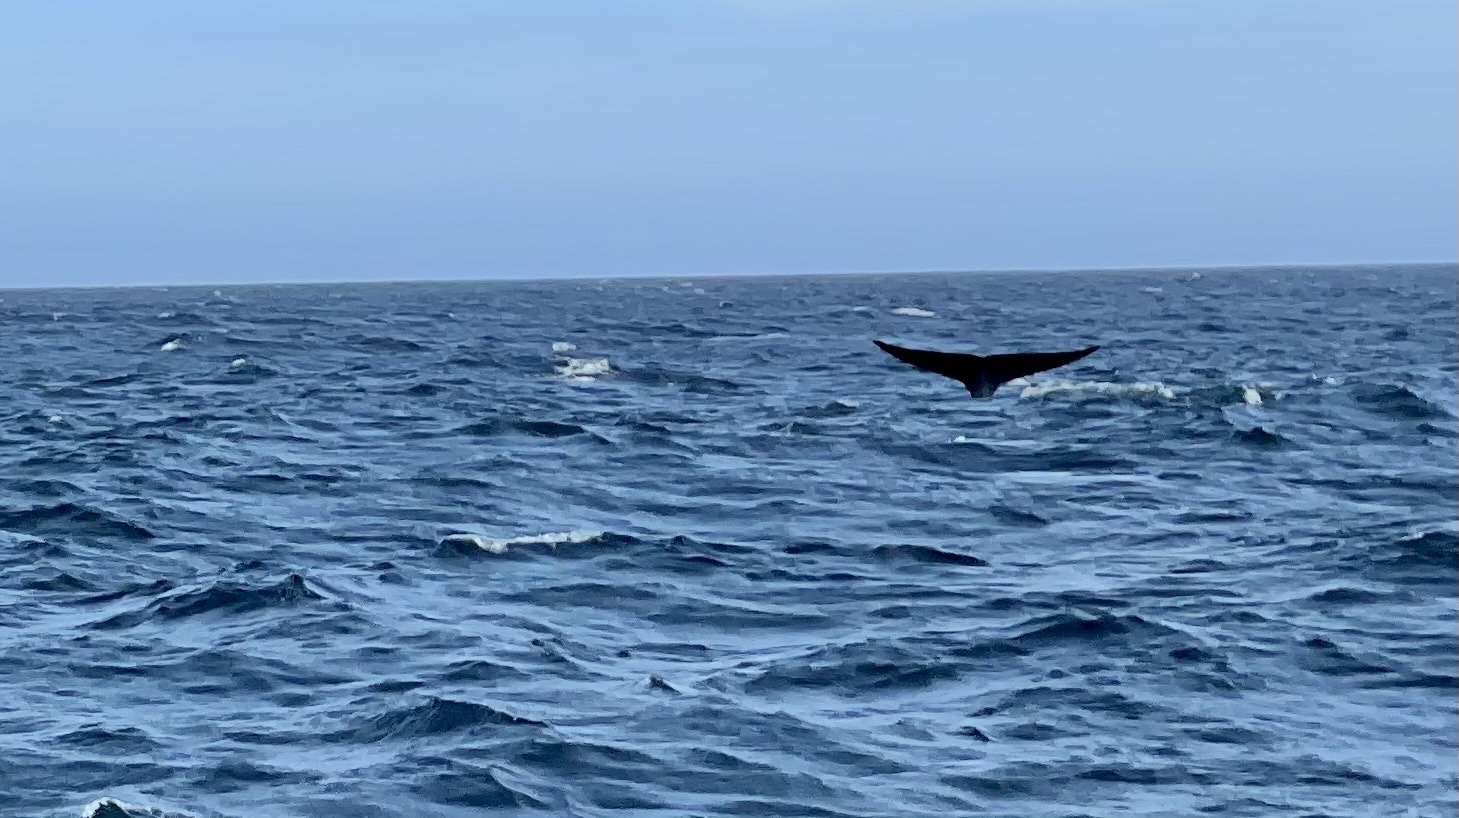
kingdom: Animalia
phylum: Chordata
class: Mammalia
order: Cetacea
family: Balaenopteridae
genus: Balaenoptera
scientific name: Balaenoptera musculus
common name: Blue whale
